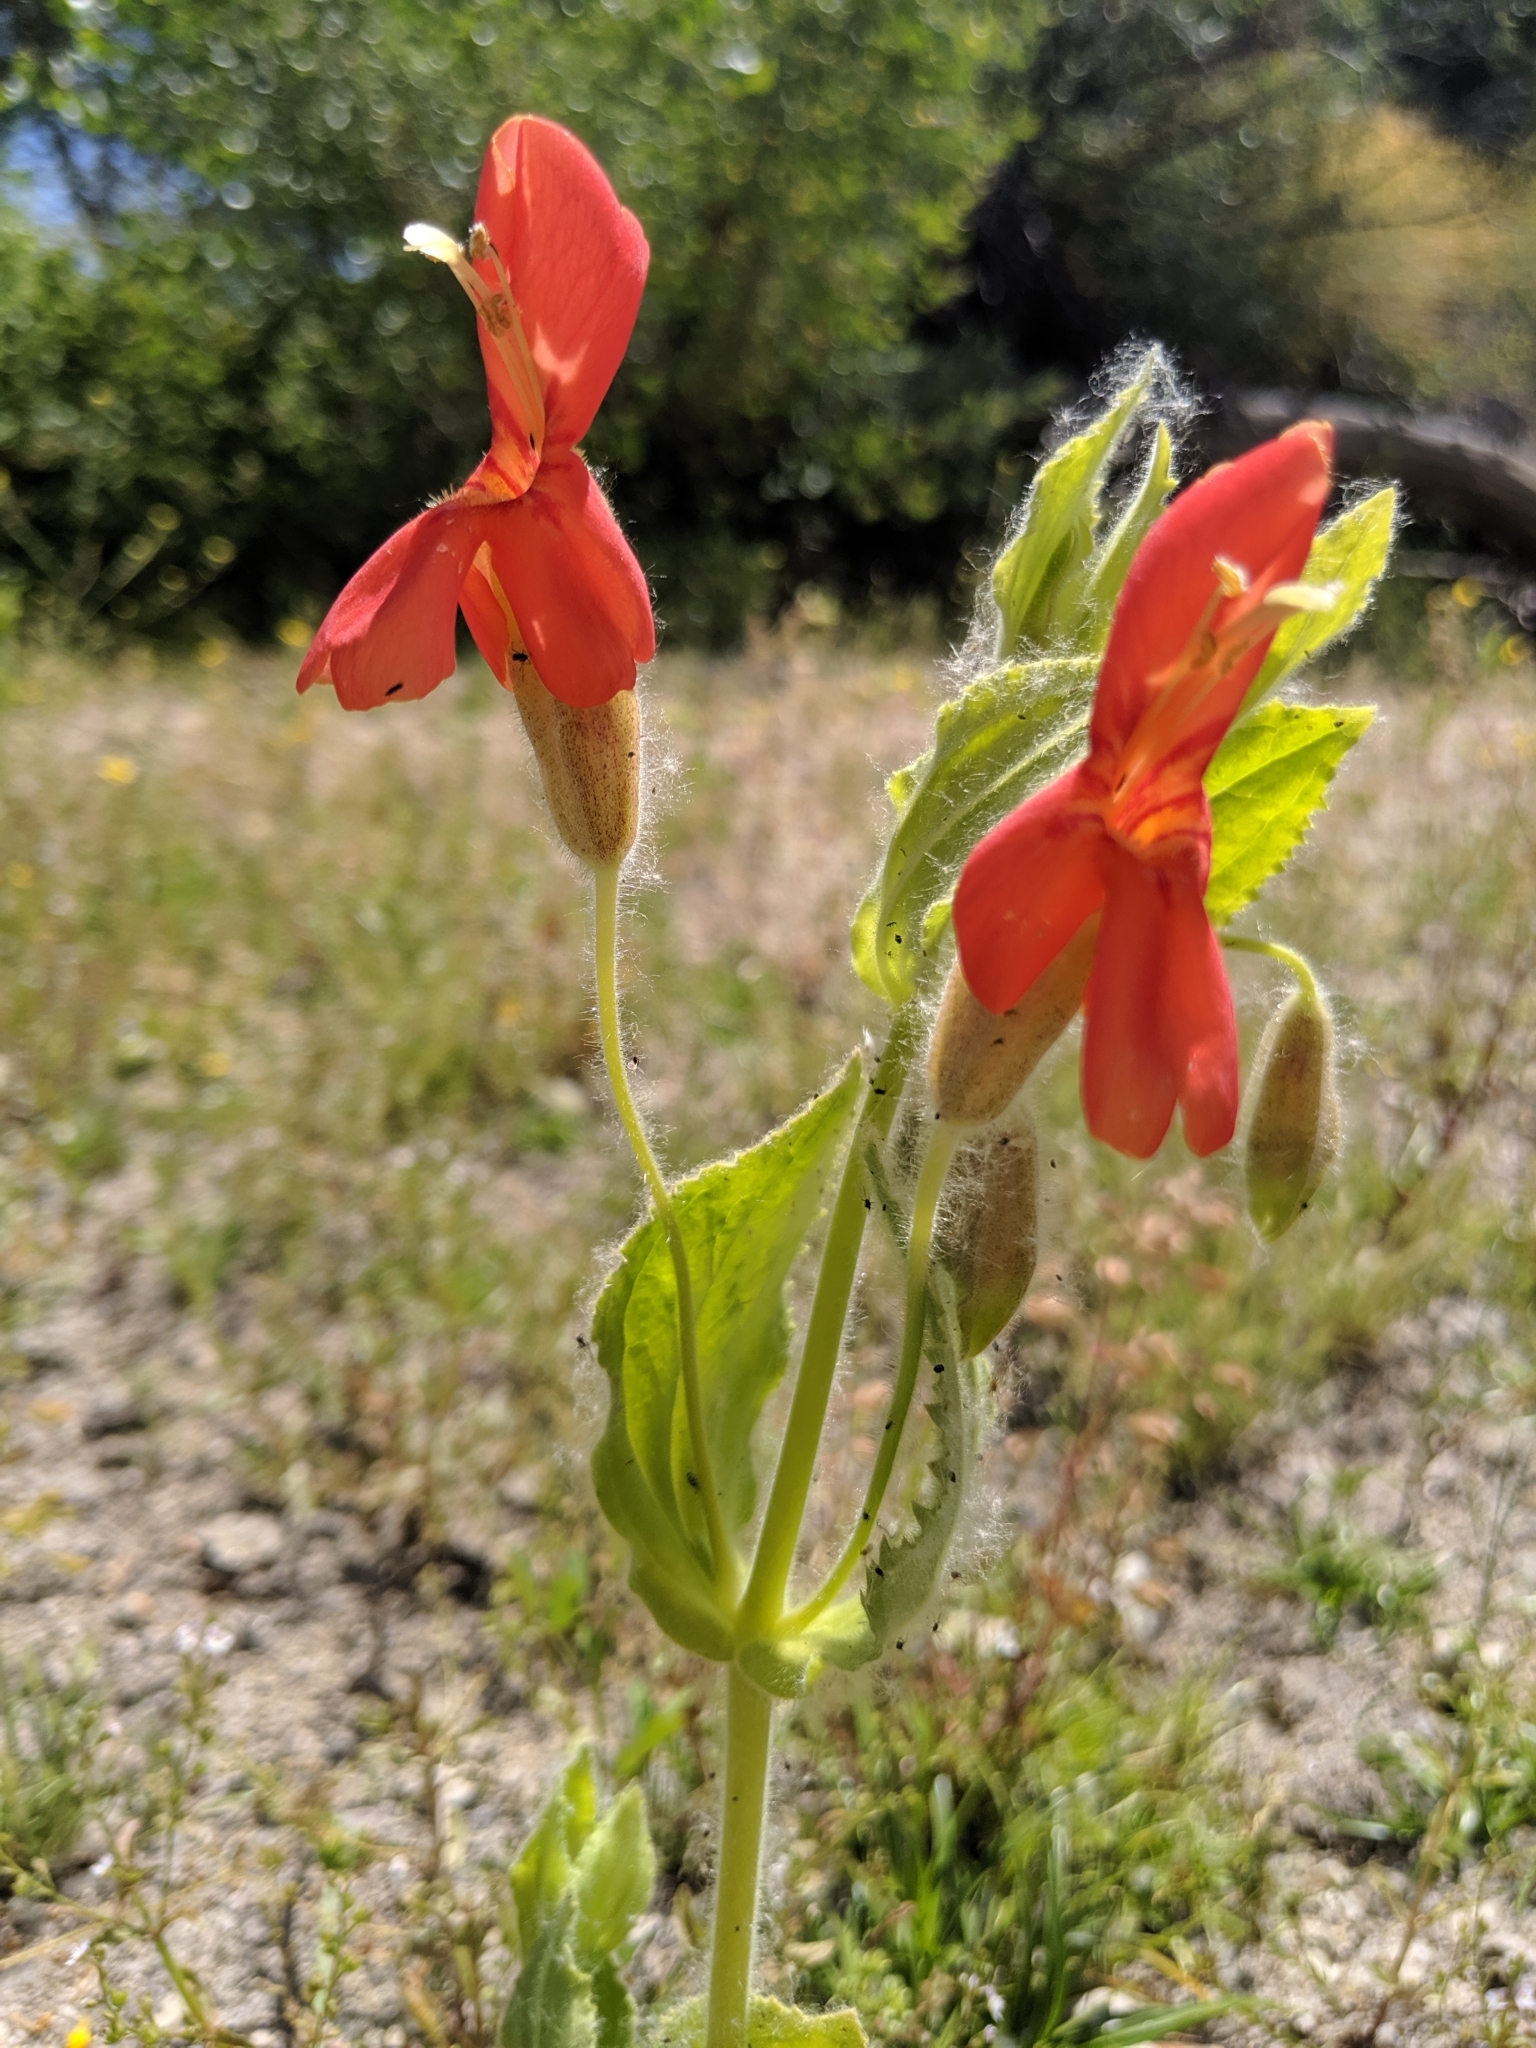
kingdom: Plantae
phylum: Tracheophyta
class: Magnoliopsida
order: Lamiales
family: Phrymaceae
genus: Erythranthe
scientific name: Erythranthe cardinalis
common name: Scarlet monkey-flower
